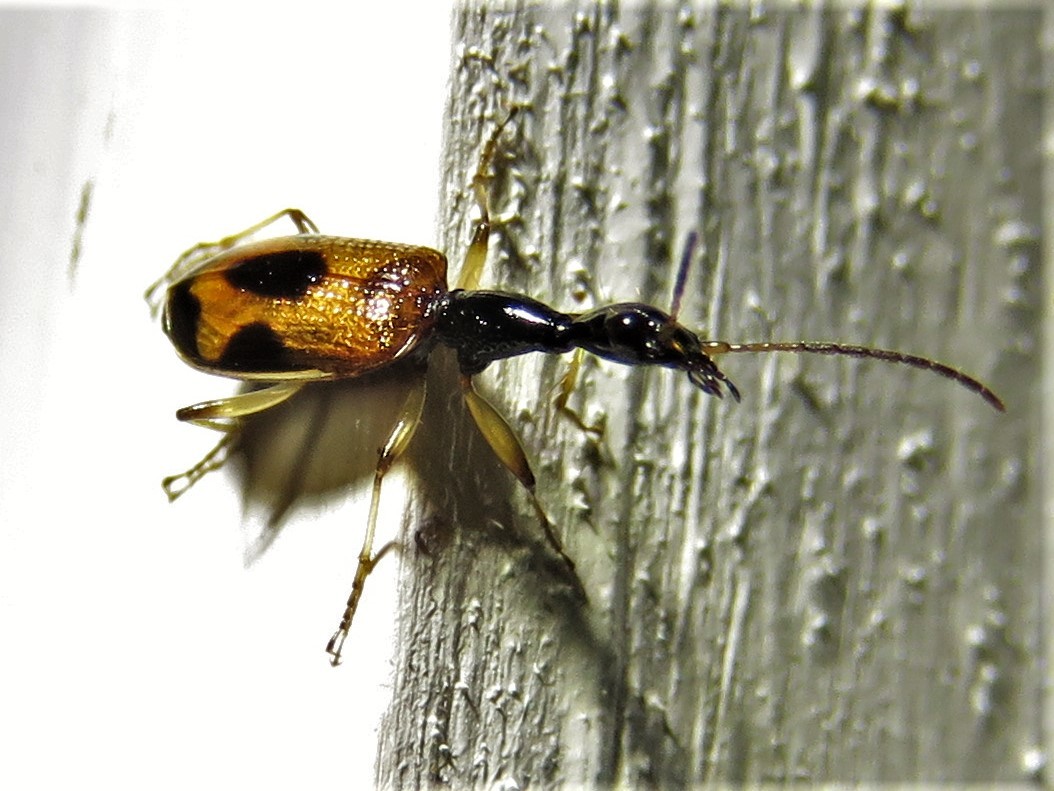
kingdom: Animalia
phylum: Arthropoda
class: Insecta
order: Coleoptera
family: Carabidae
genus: Colliuris
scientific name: Colliuris pensylvanica
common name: Long-necked ground beetle
